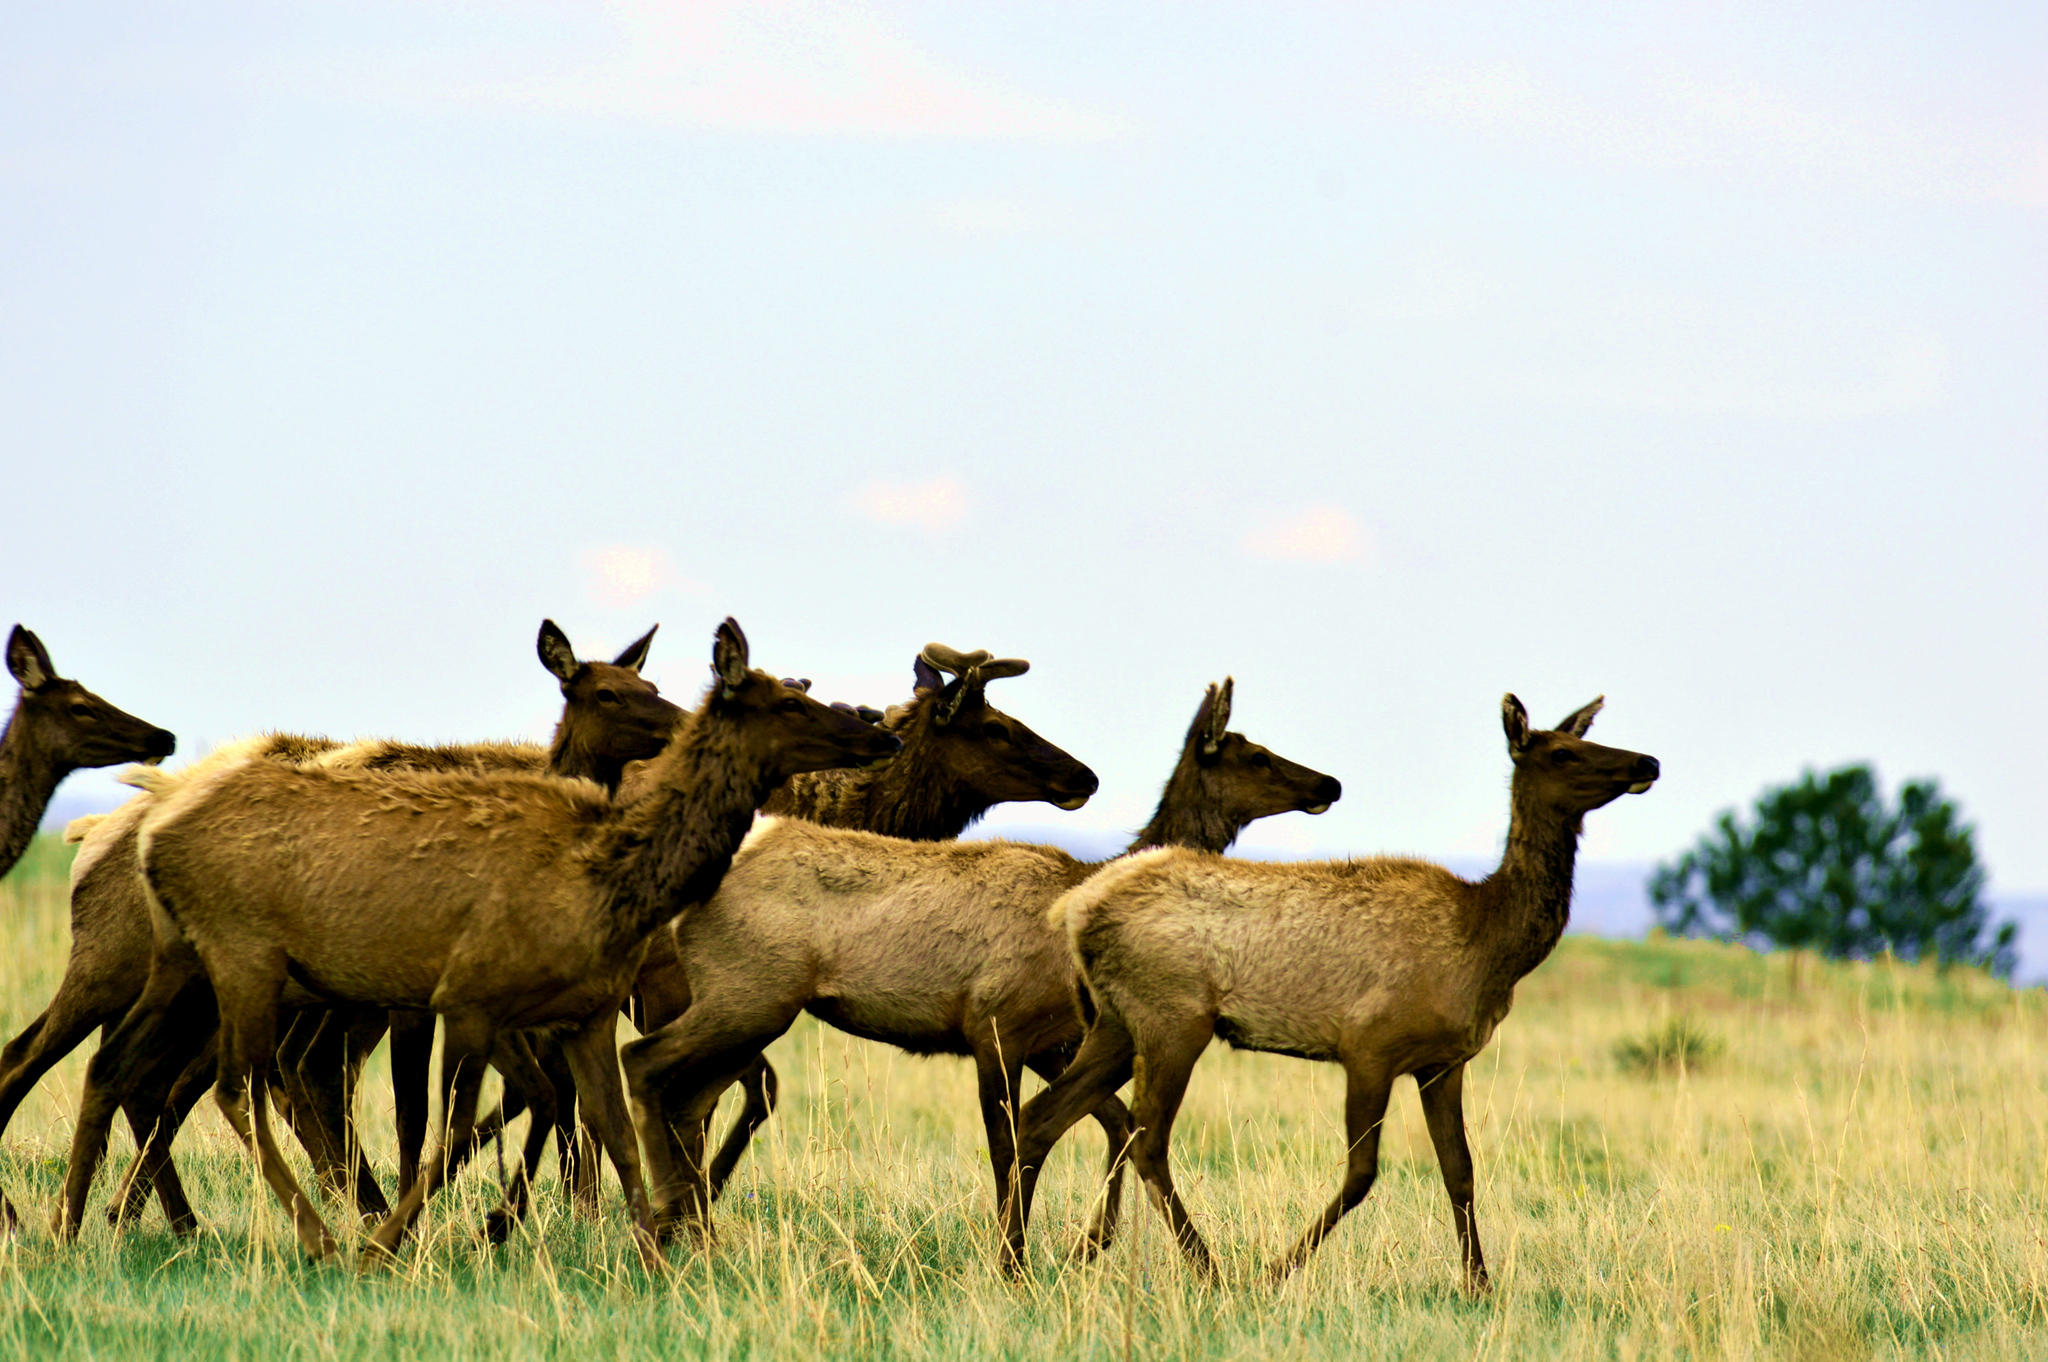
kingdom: Animalia
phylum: Chordata
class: Mammalia
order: Artiodactyla
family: Cervidae
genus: Cervus
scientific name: Cervus elaphus
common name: Red deer
